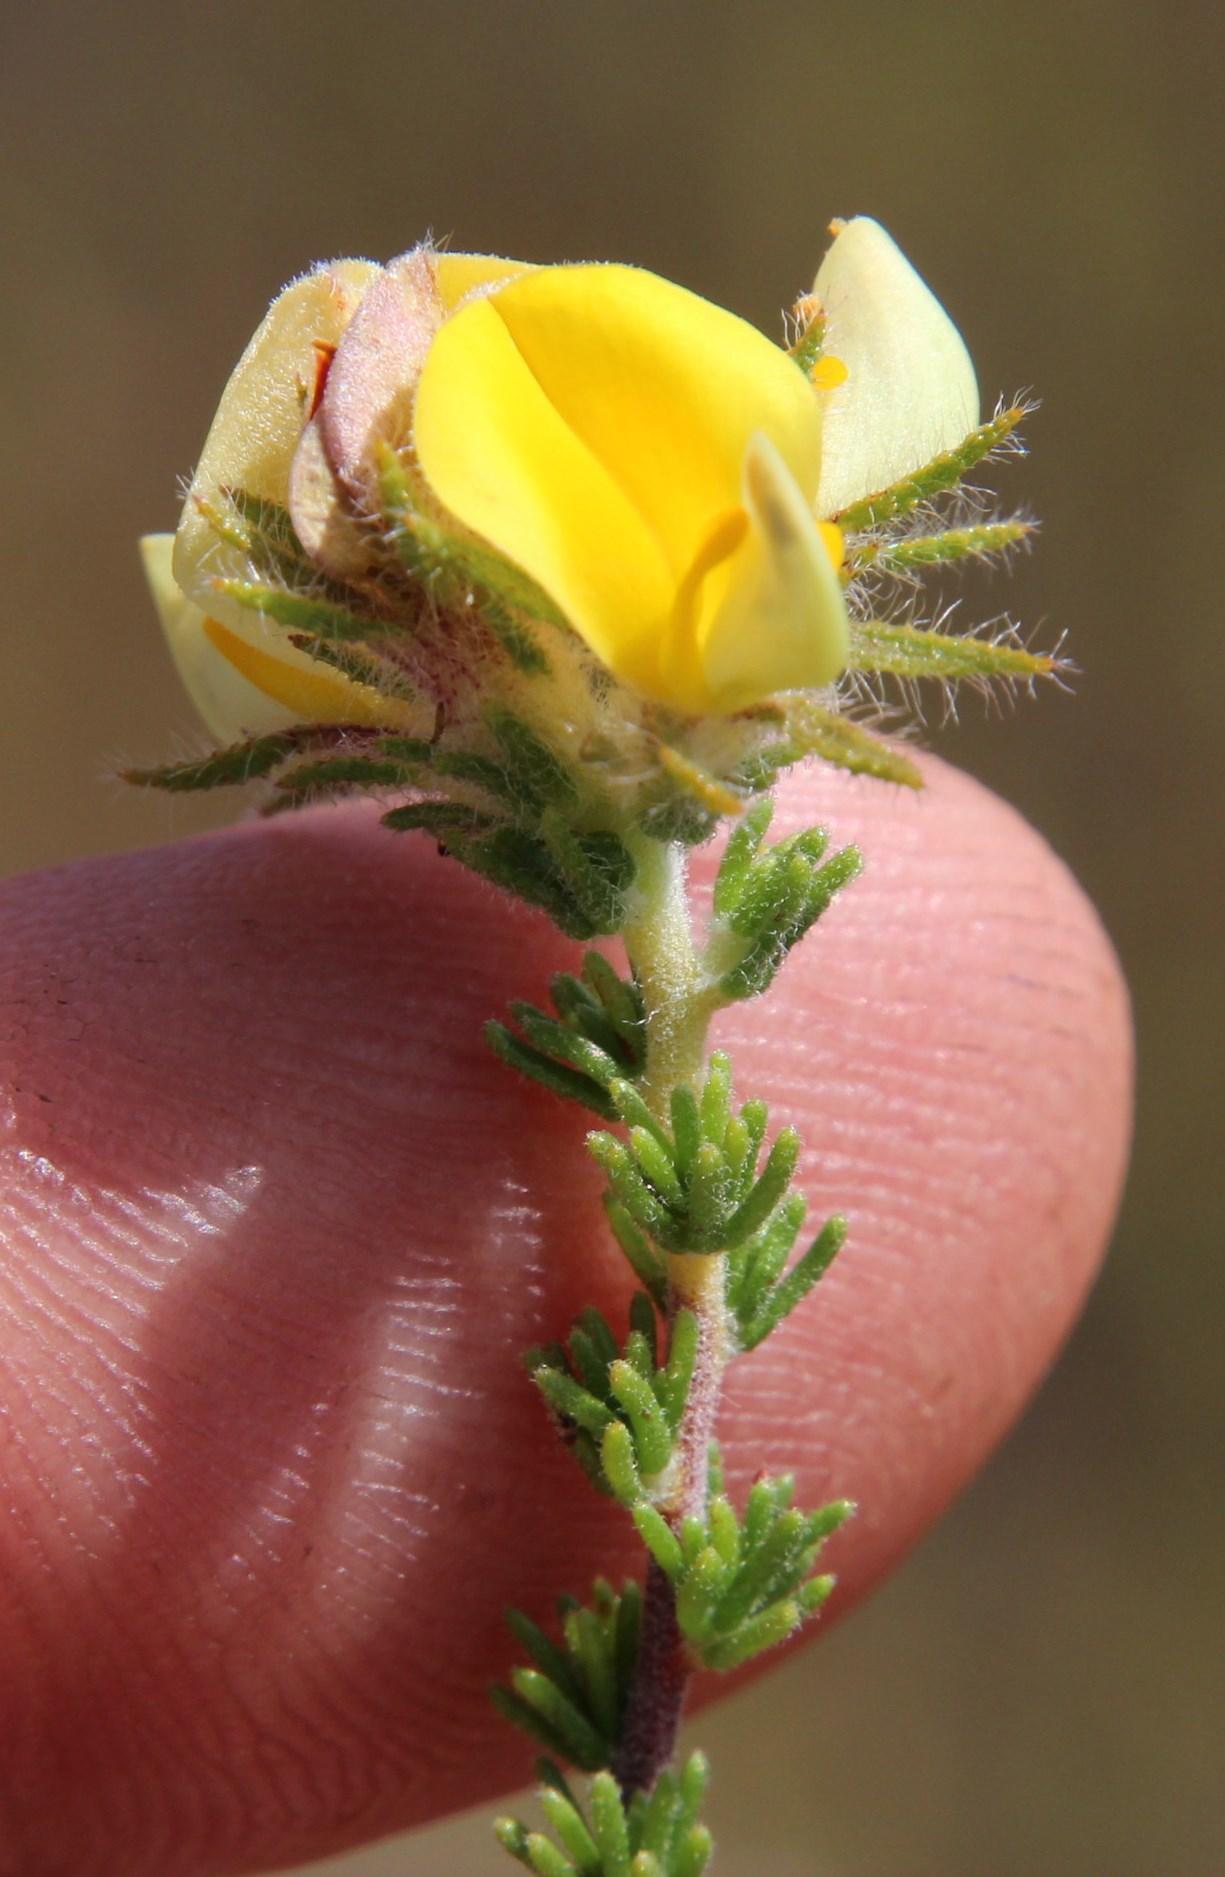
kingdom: Plantae
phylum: Tracheophyta
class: Magnoliopsida
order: Fabales
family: Fabaceae
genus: Aspalathus
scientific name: Aspalathus ciliaris
